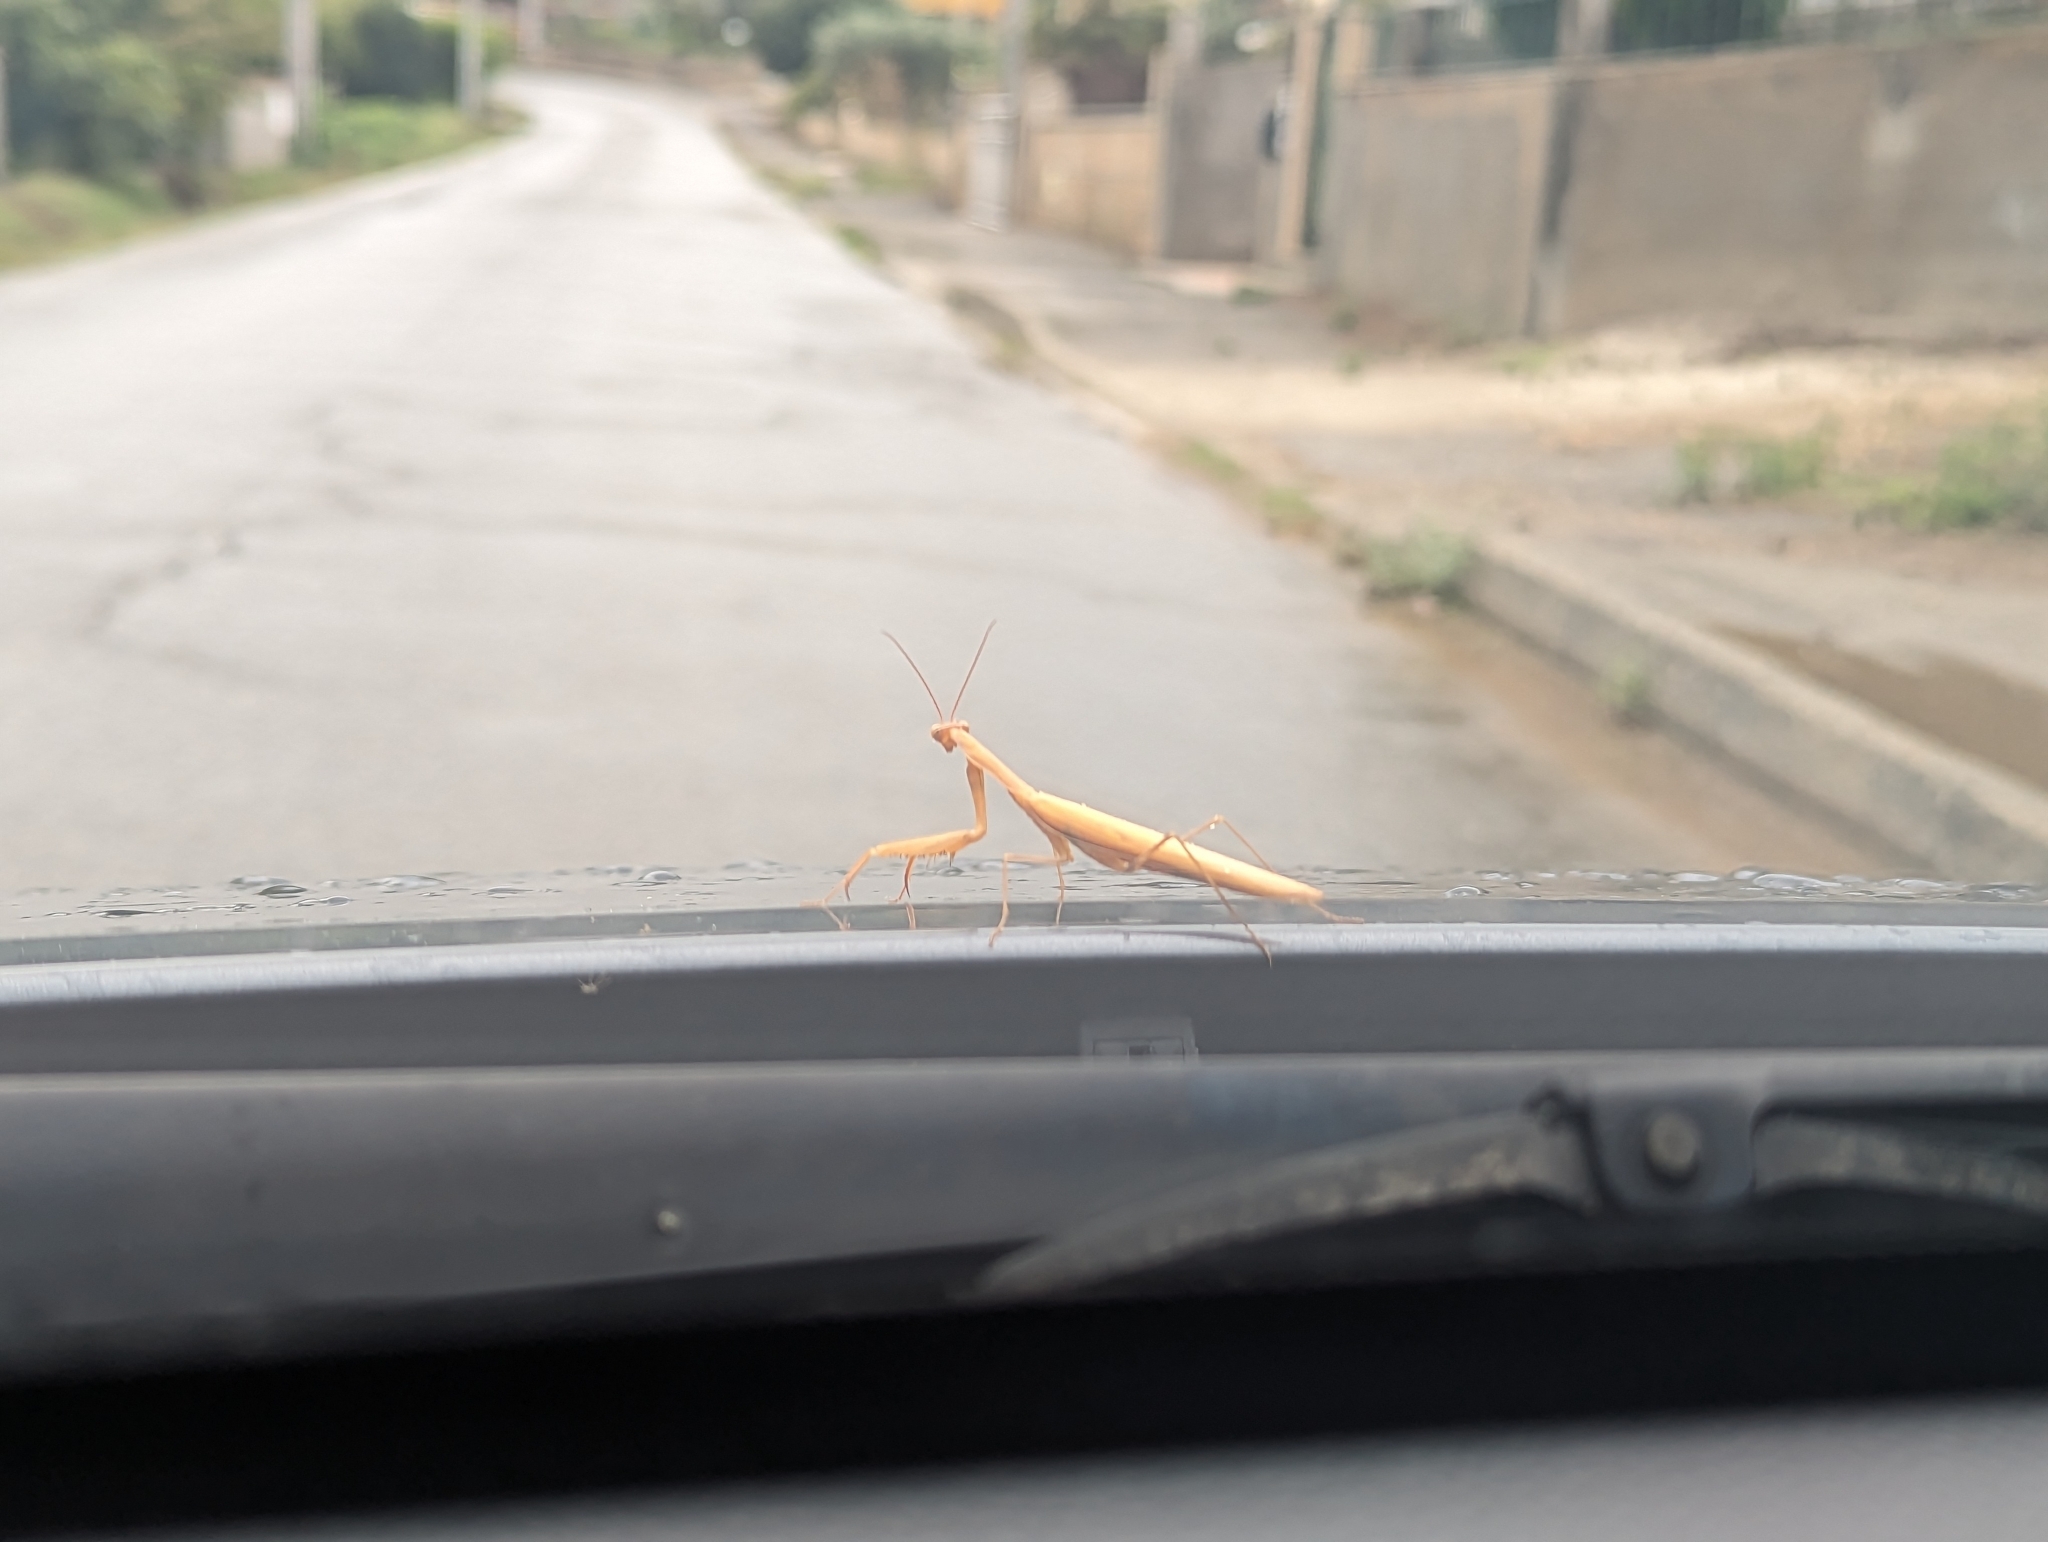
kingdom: Animalia
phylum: Arthropoda
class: Insecta
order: Mantodea
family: Mantidae
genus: Mantis
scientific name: Mantis religiosa
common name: Praying mantis
